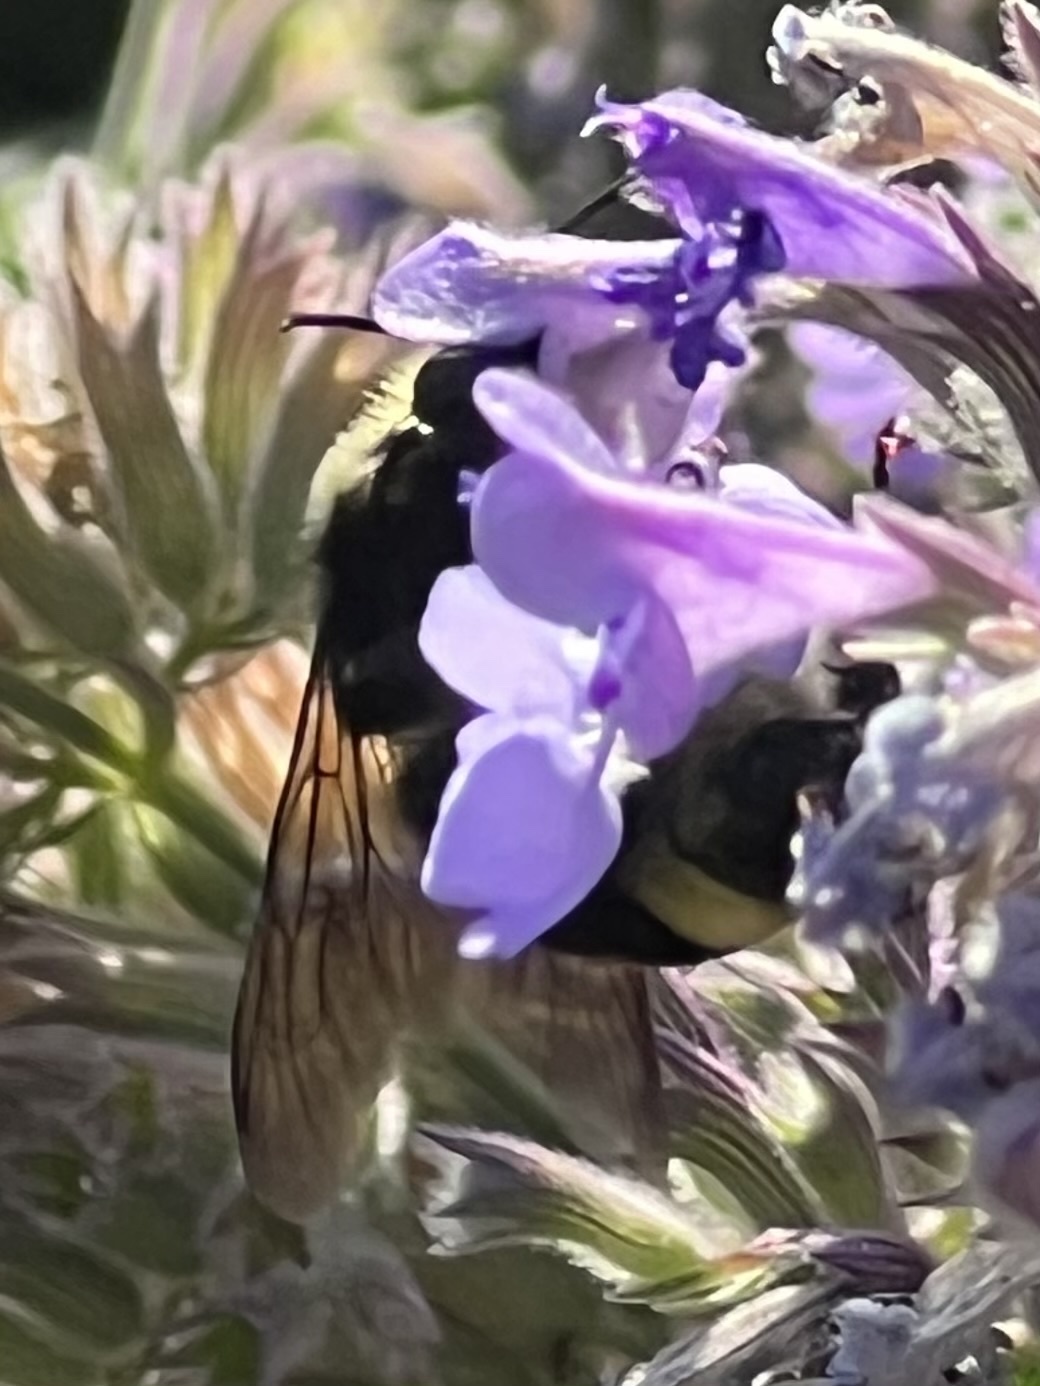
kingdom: Animalia
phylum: Arthropoda
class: Insecta
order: Hymenoptera
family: Apidae
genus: Bombus
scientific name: Bombus vosnesenskii
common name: Vosnesensky bumble bee
